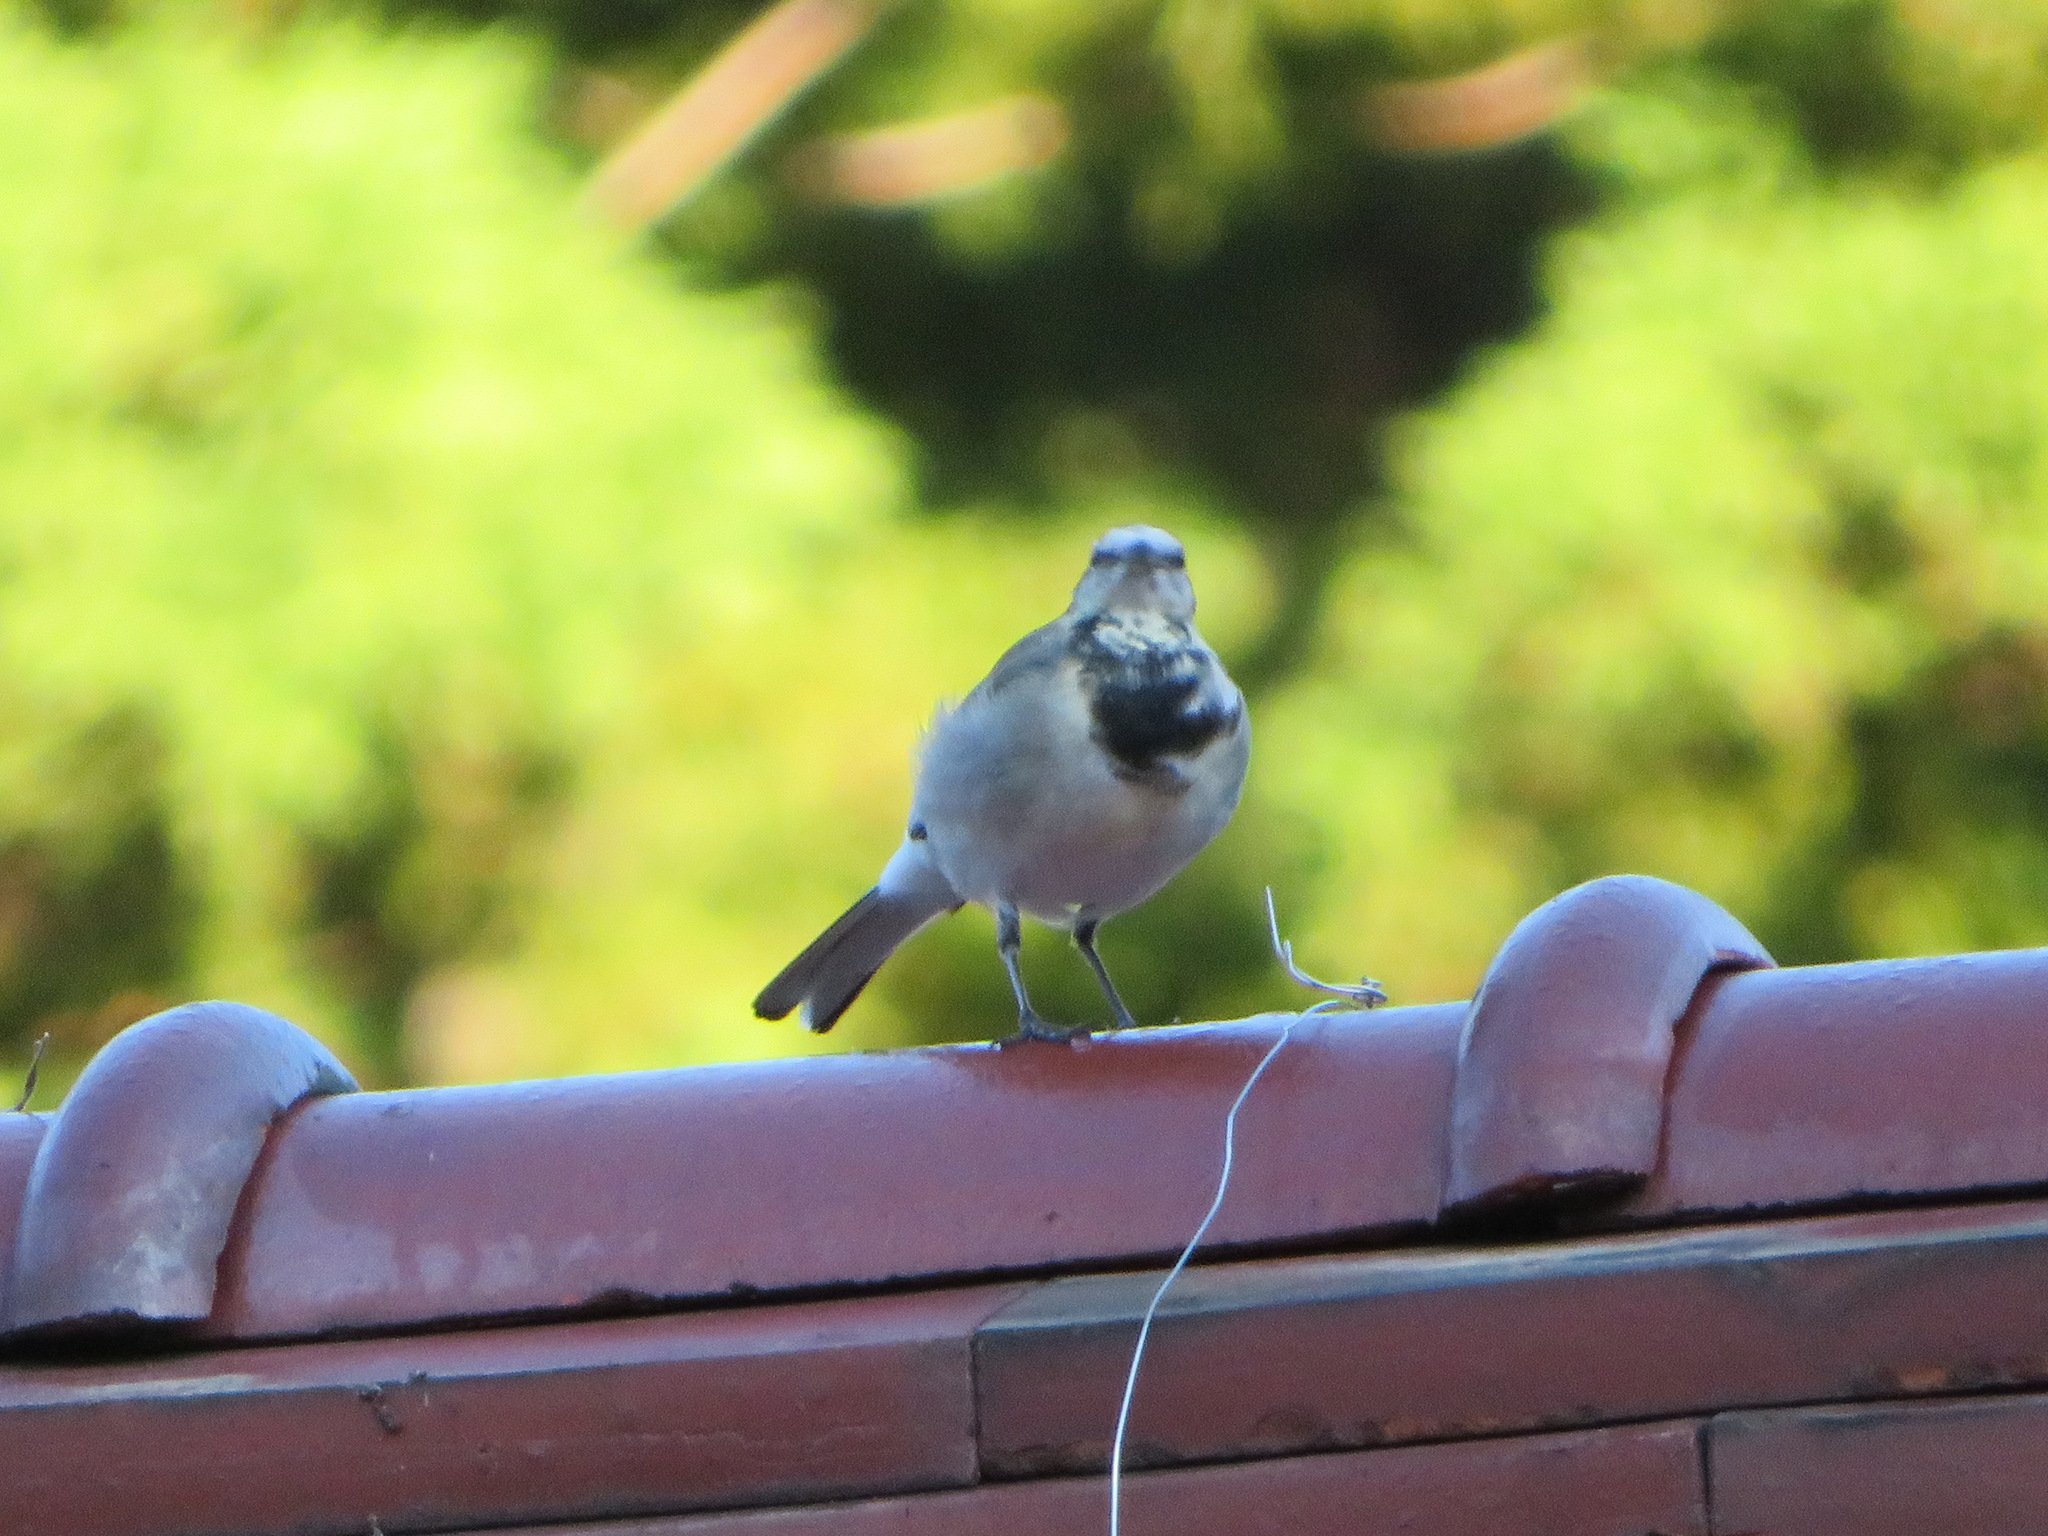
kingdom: Animalia
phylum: Chordata
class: Aves
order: Passeriformes
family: Motacillidae
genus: Motacilla
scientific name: Motacilla alba
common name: White wagtail
